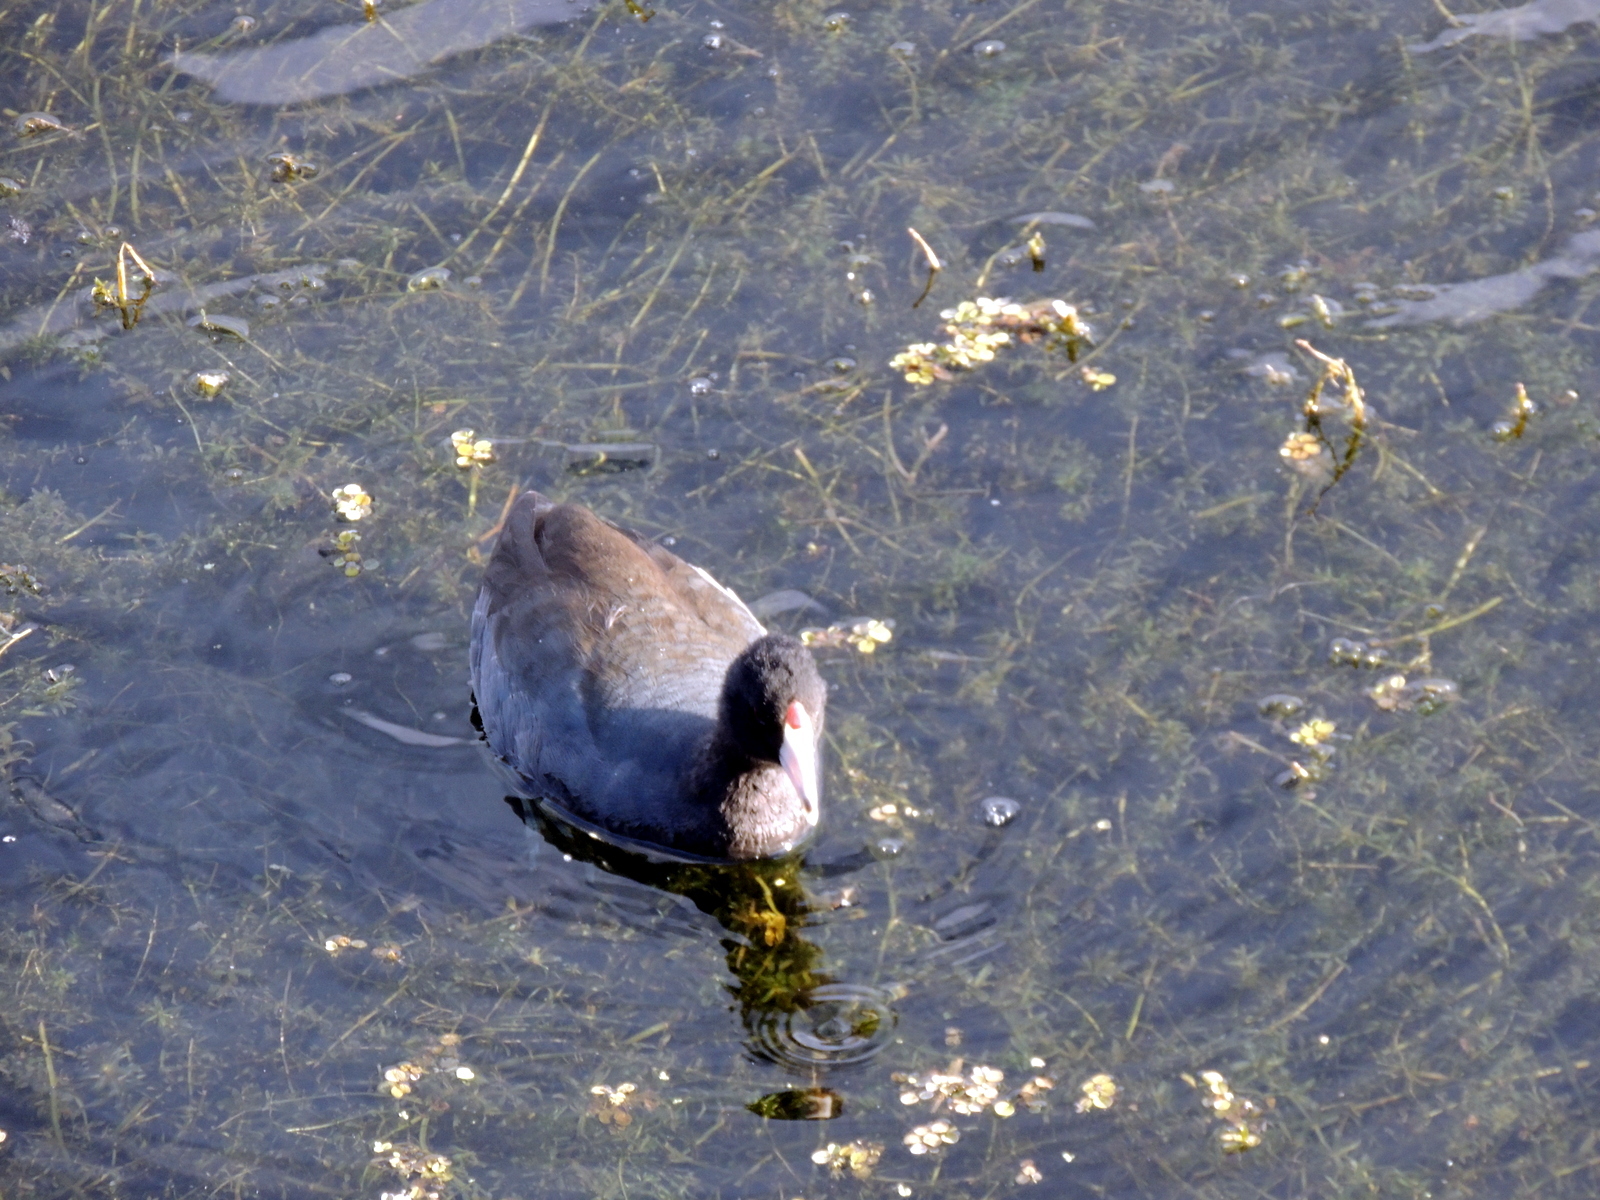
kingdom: Animalia
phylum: Chordata
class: Aves
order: Gruiformes
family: Rallidae
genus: Fulica
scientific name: Fulica americana
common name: American coot
